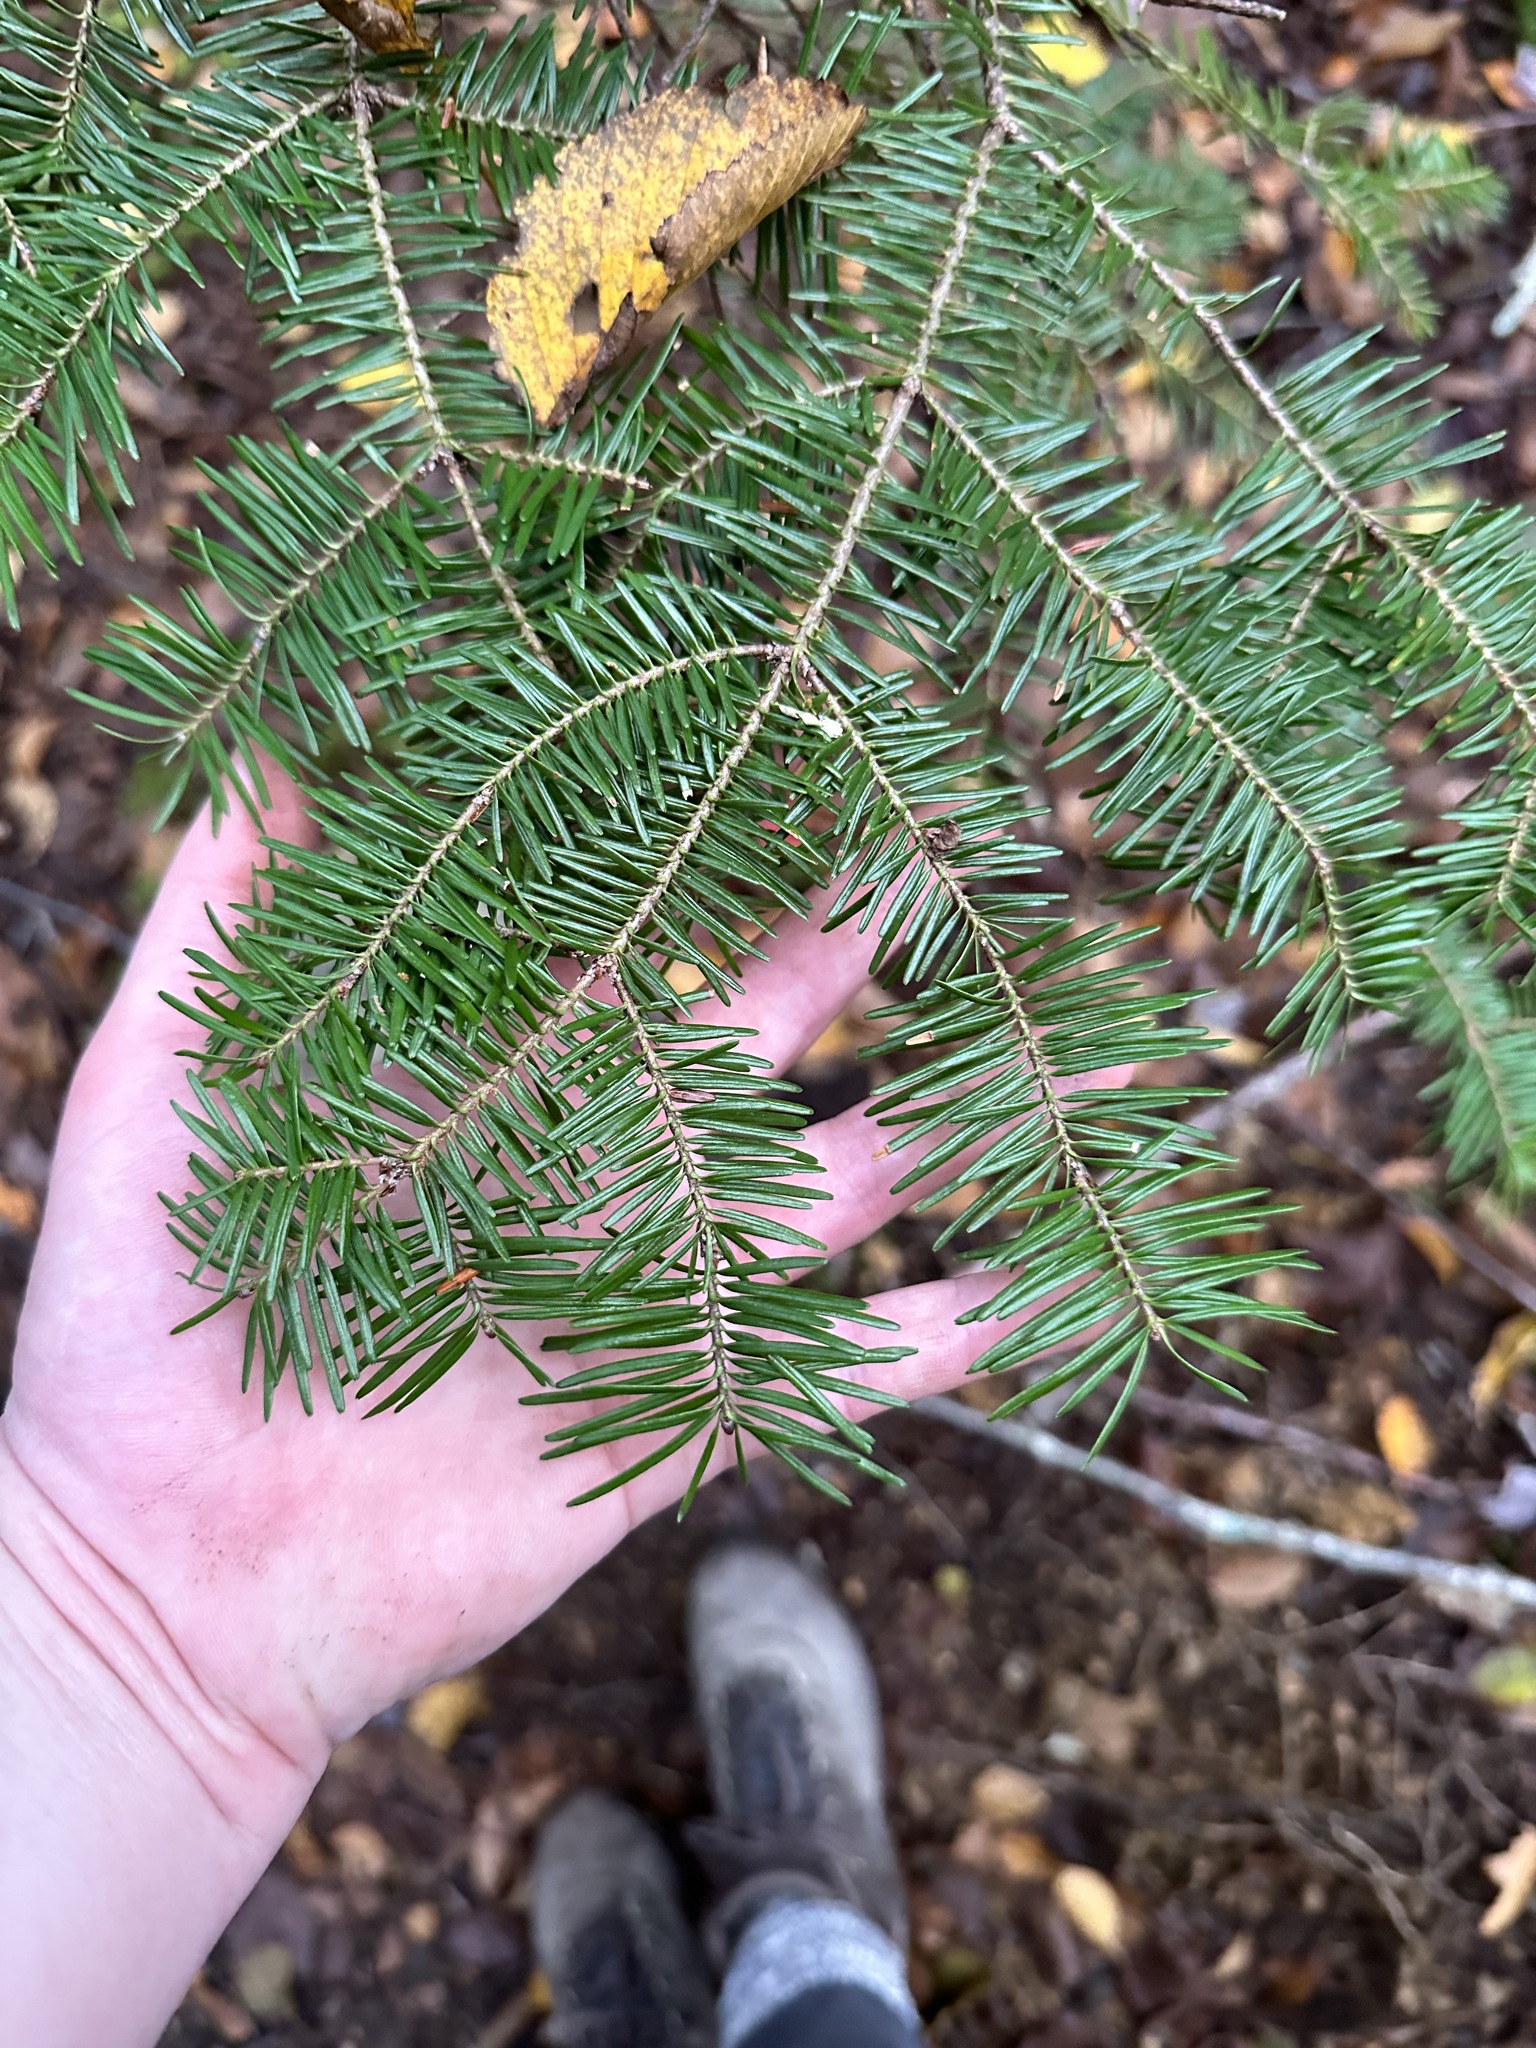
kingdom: Plantae
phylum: Tracheophyta
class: Pinopsida
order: Pinales
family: Pinaceae
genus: Abies
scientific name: Abies balsamea
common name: Balsam fir
